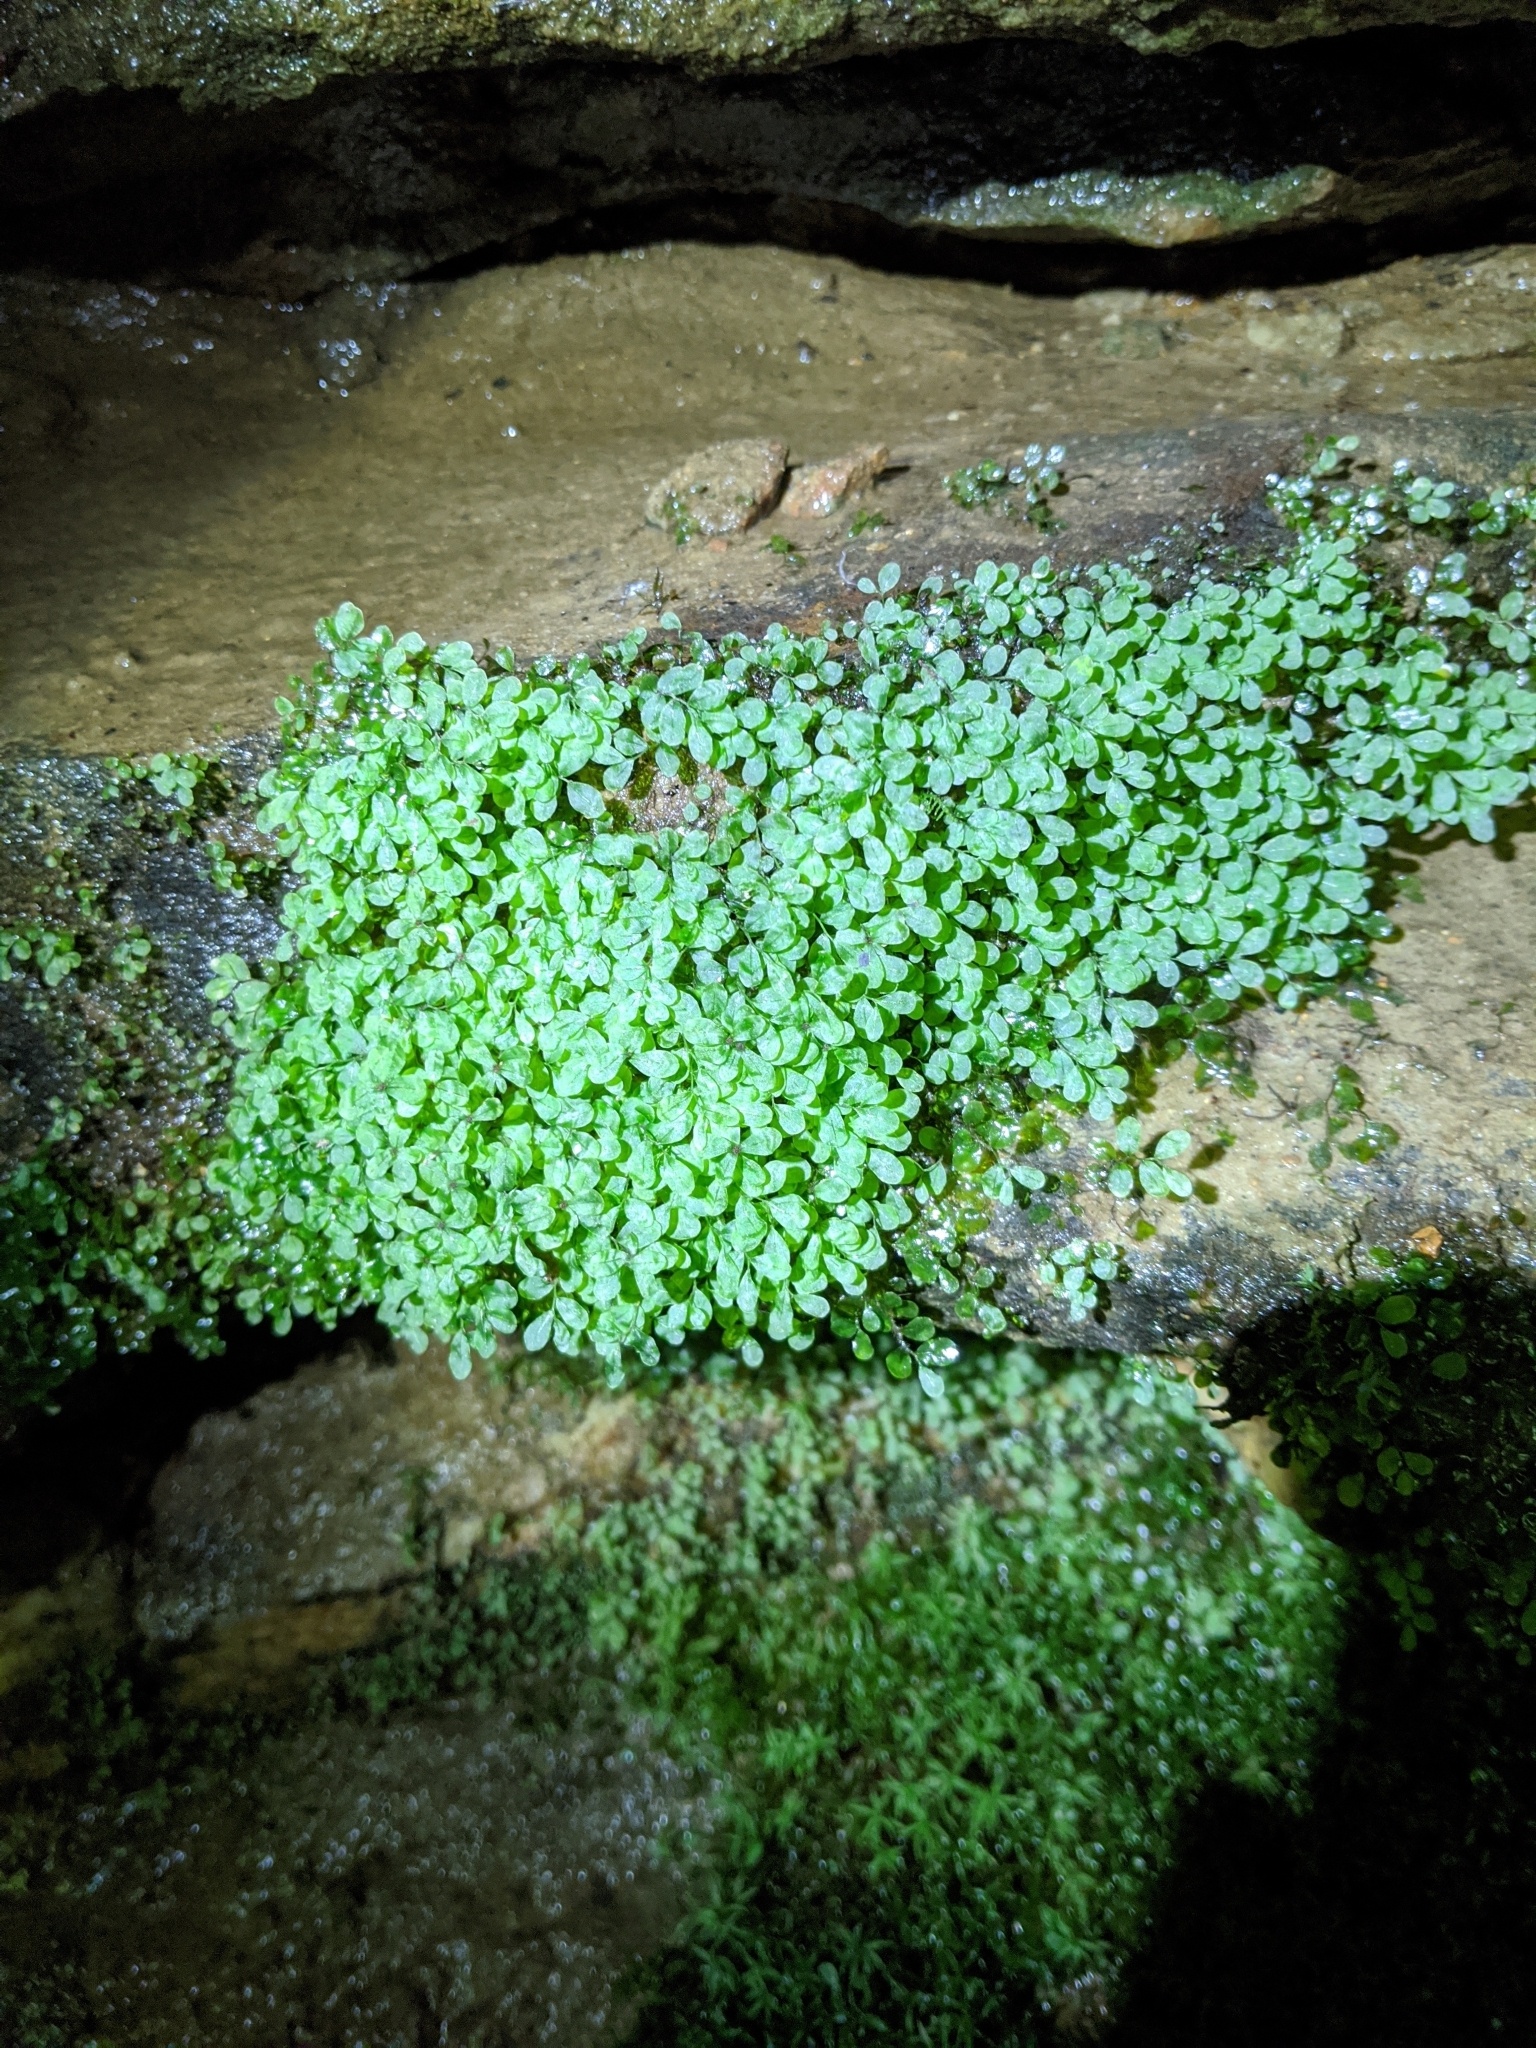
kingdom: Plantae
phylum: Bryophyta
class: Bryopsida
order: Bryales
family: Mniaceae
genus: Rhizomnium
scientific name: Rhizomnium punctatum
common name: Dotted leafy moss
